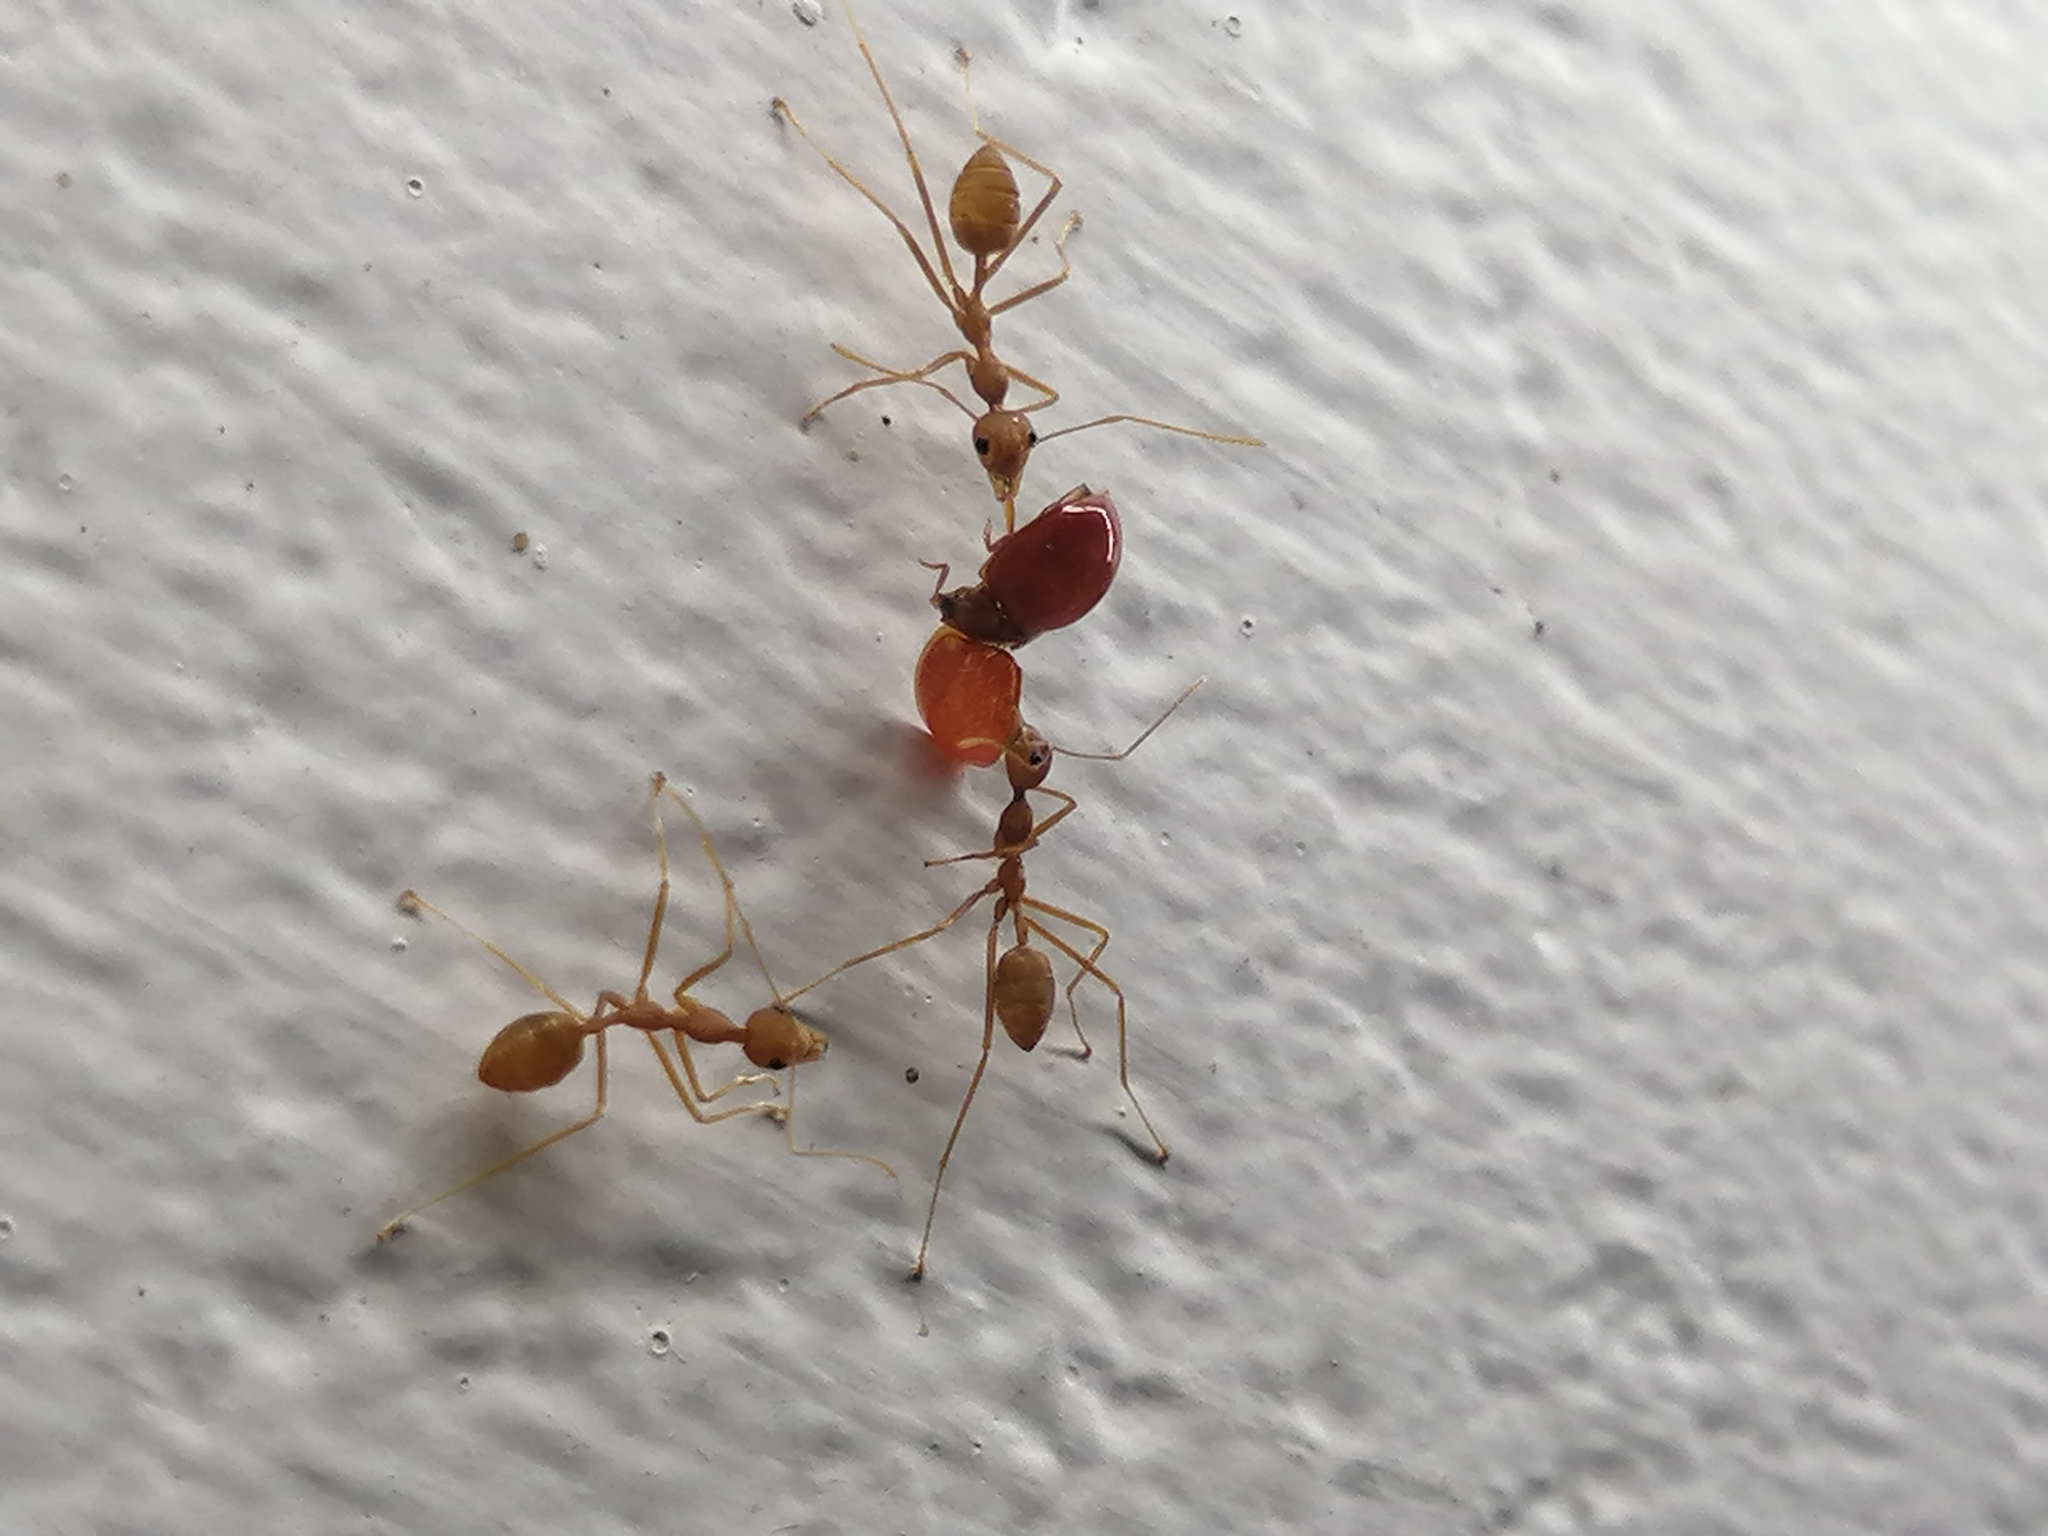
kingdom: Animalia
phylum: Arthropoda
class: Insecta
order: Hymenoptera
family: Formicidae
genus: Oecophylla
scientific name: Oecophylla smaragdina
